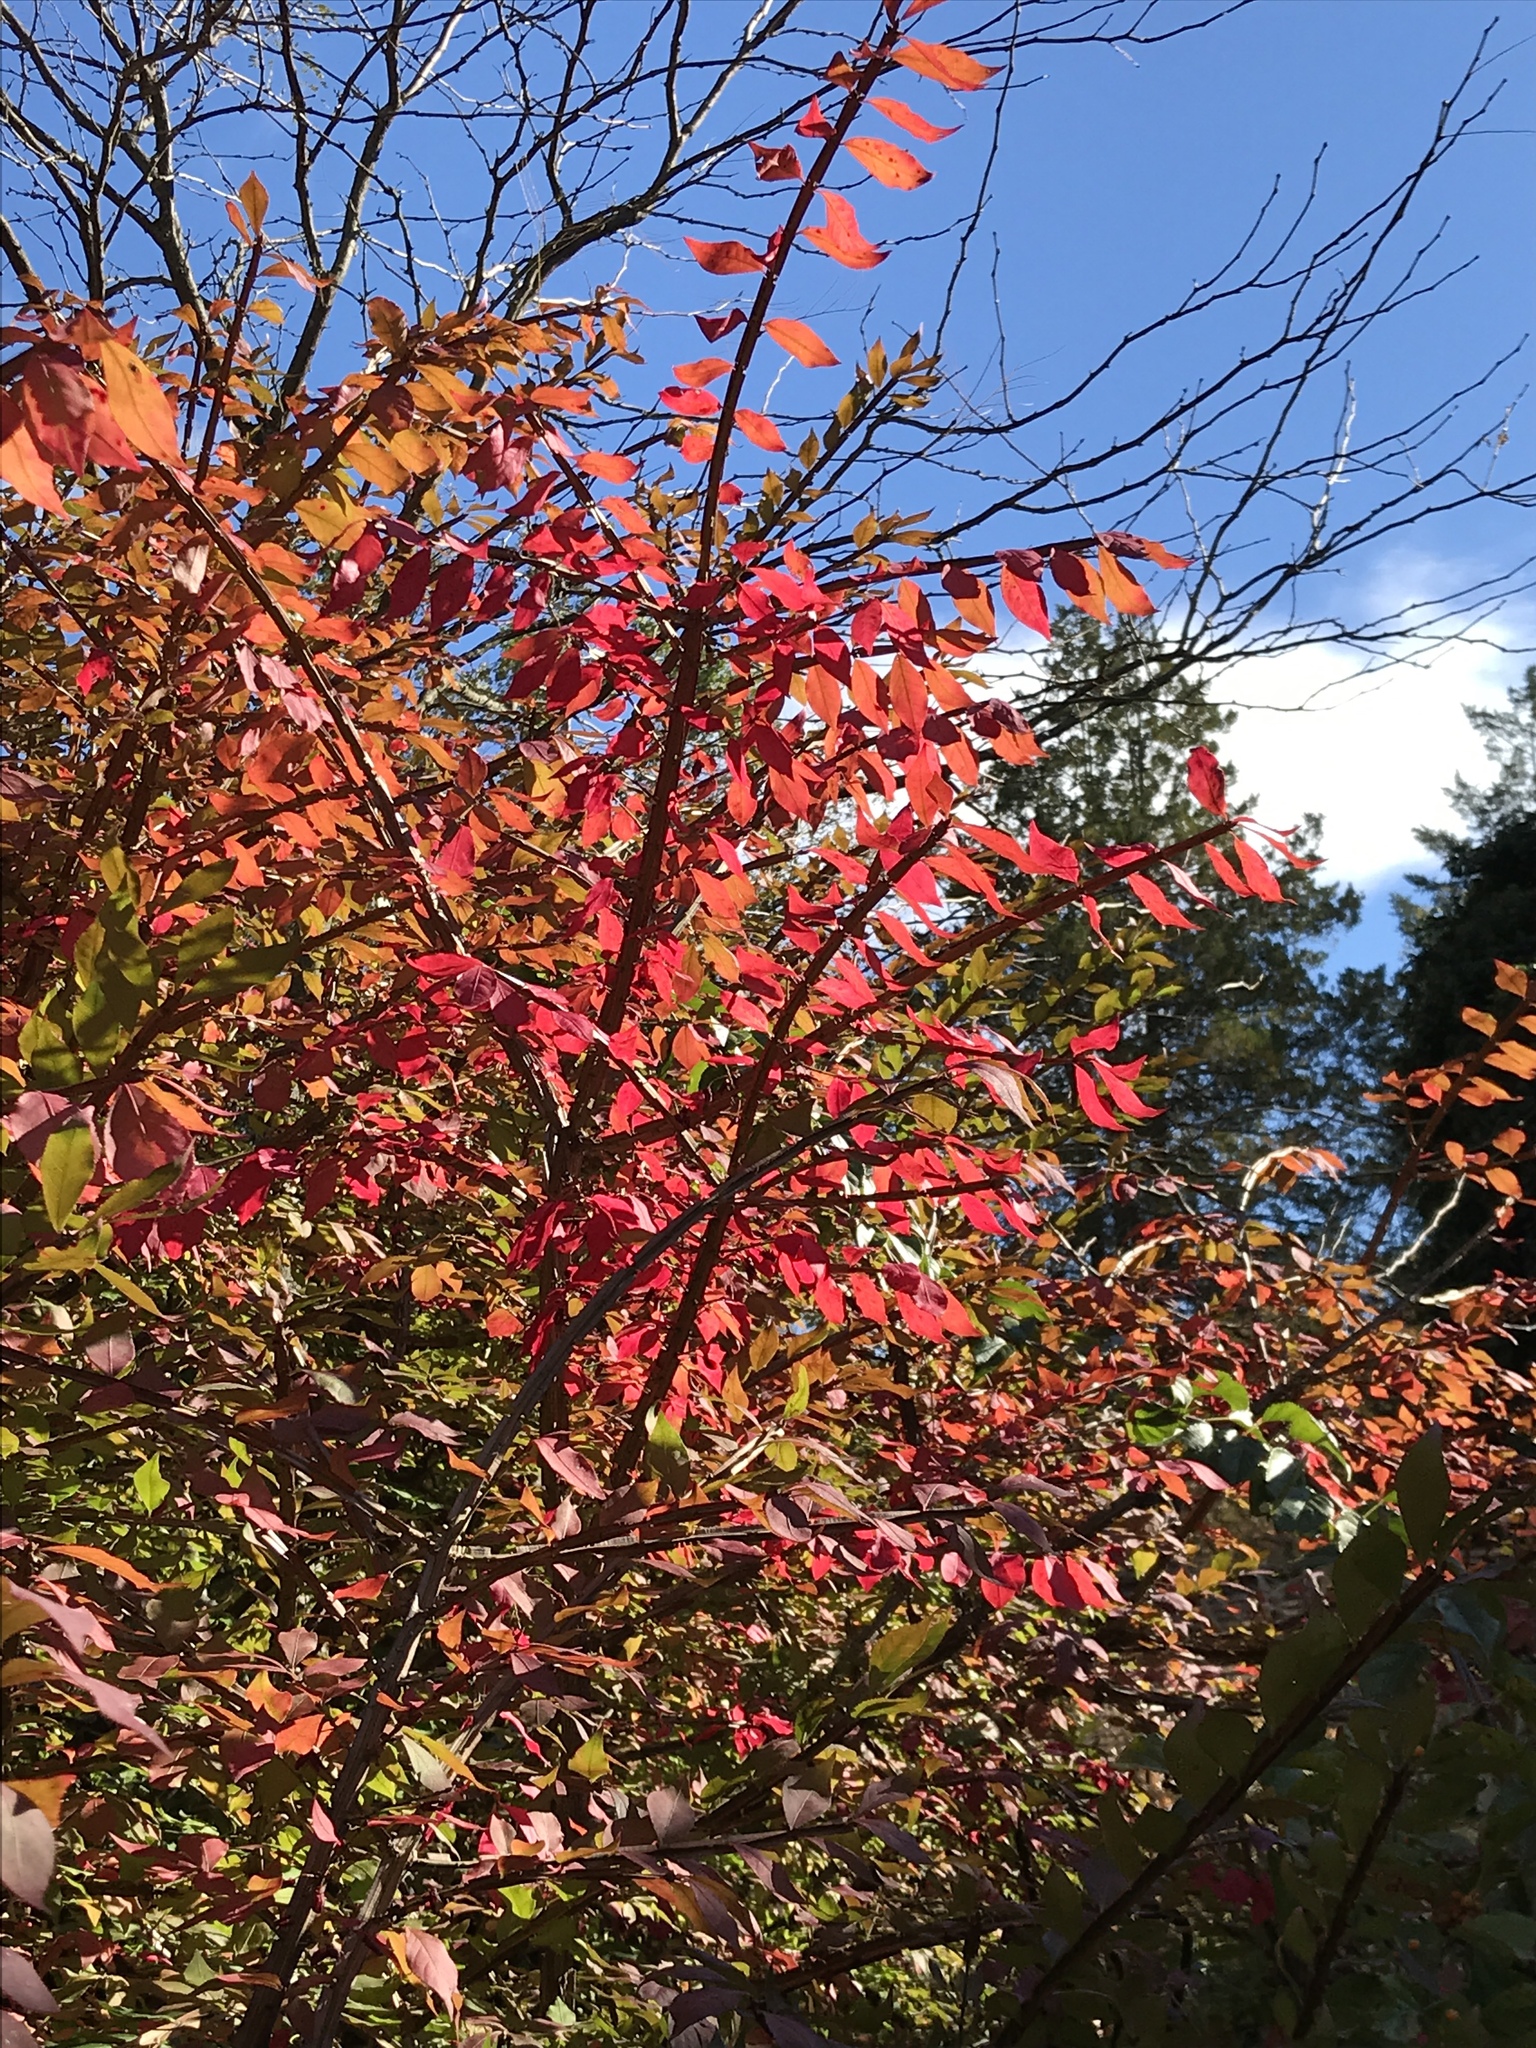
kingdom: Plantae
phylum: Tracheophyta
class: Magnoliopsida
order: Celastrales
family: Celastraceae
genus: Euonymus
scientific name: Euonymus alatus
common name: Winged euonymus
